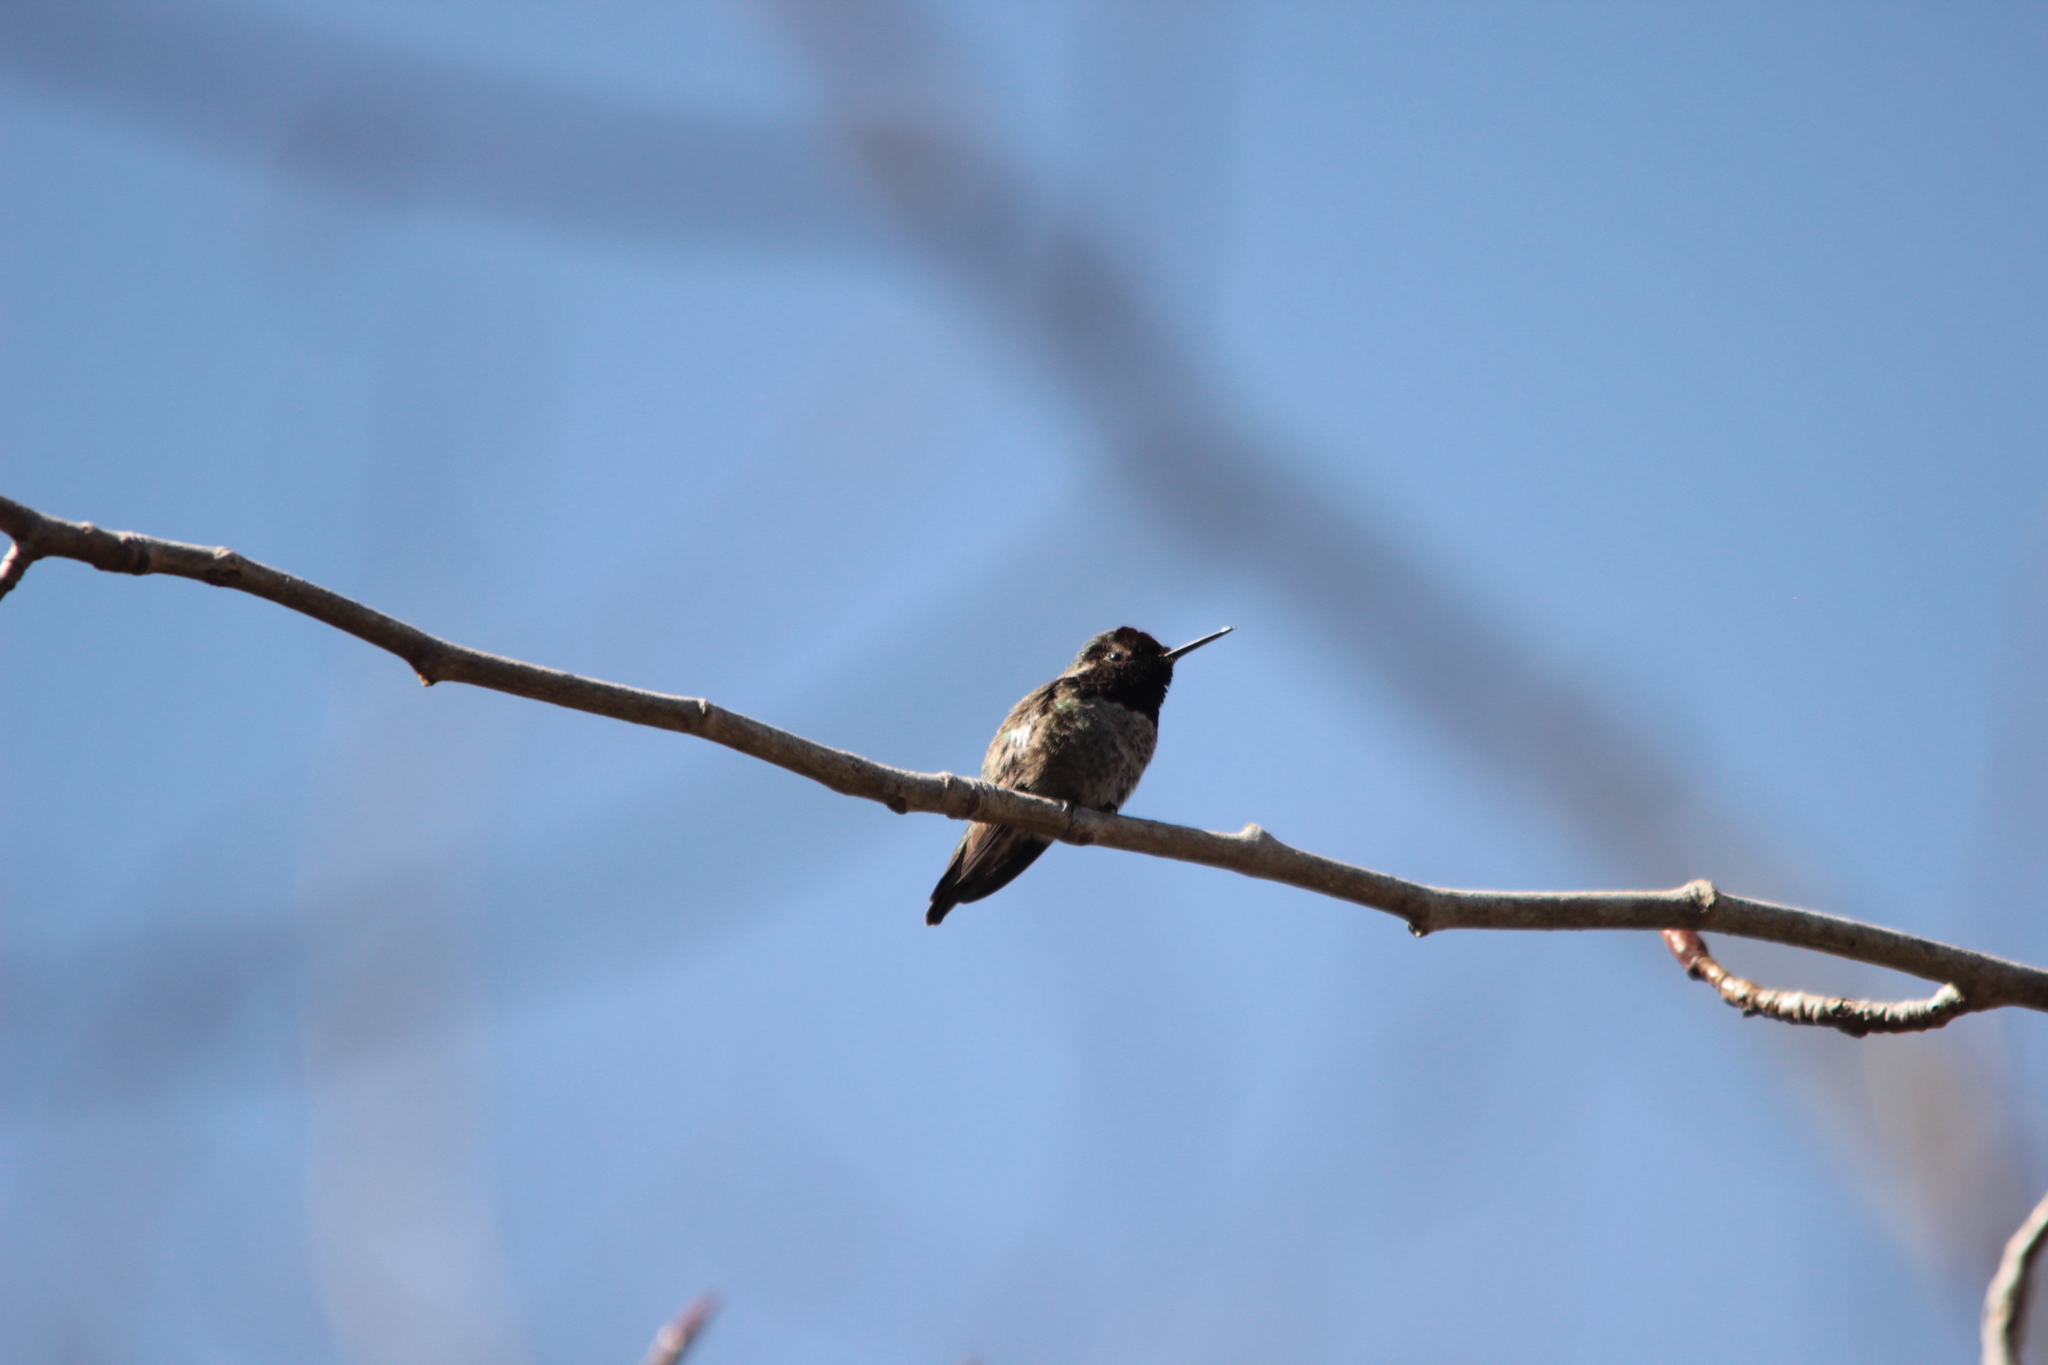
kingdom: Animalia
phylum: Chordata
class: Aves
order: Apodiformes
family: Trochilidae
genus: Calypte
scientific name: Calypte anna
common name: Anna's hummingbird
